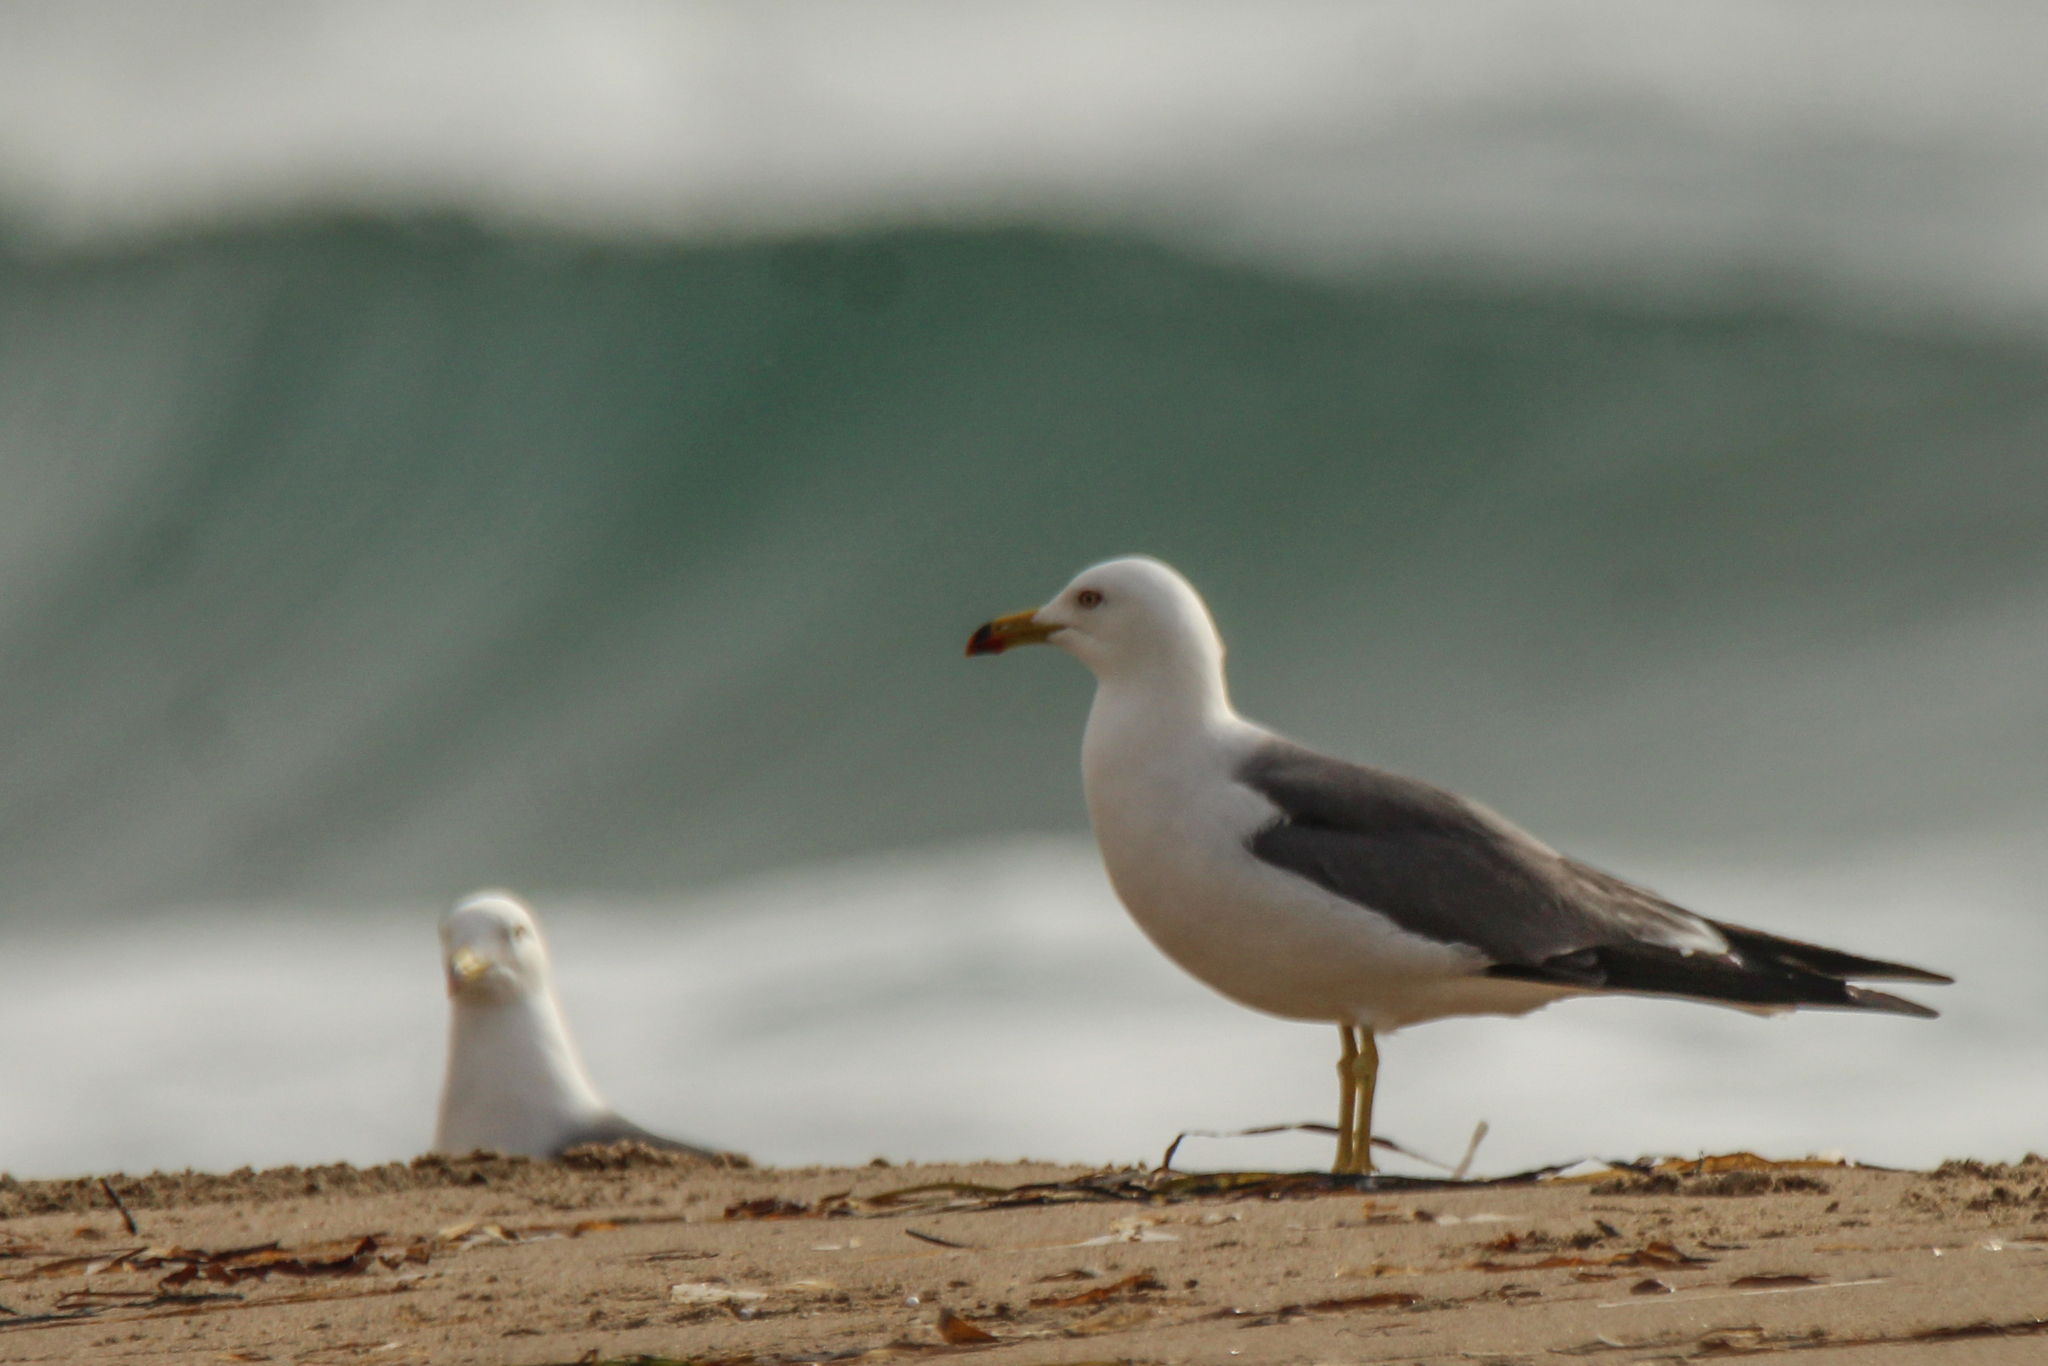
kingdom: Animalia
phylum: Chordata
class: Aves
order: Charadriiformes
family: Laridae
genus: Larus
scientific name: Larus crassirostris
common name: Black-tailed gull
